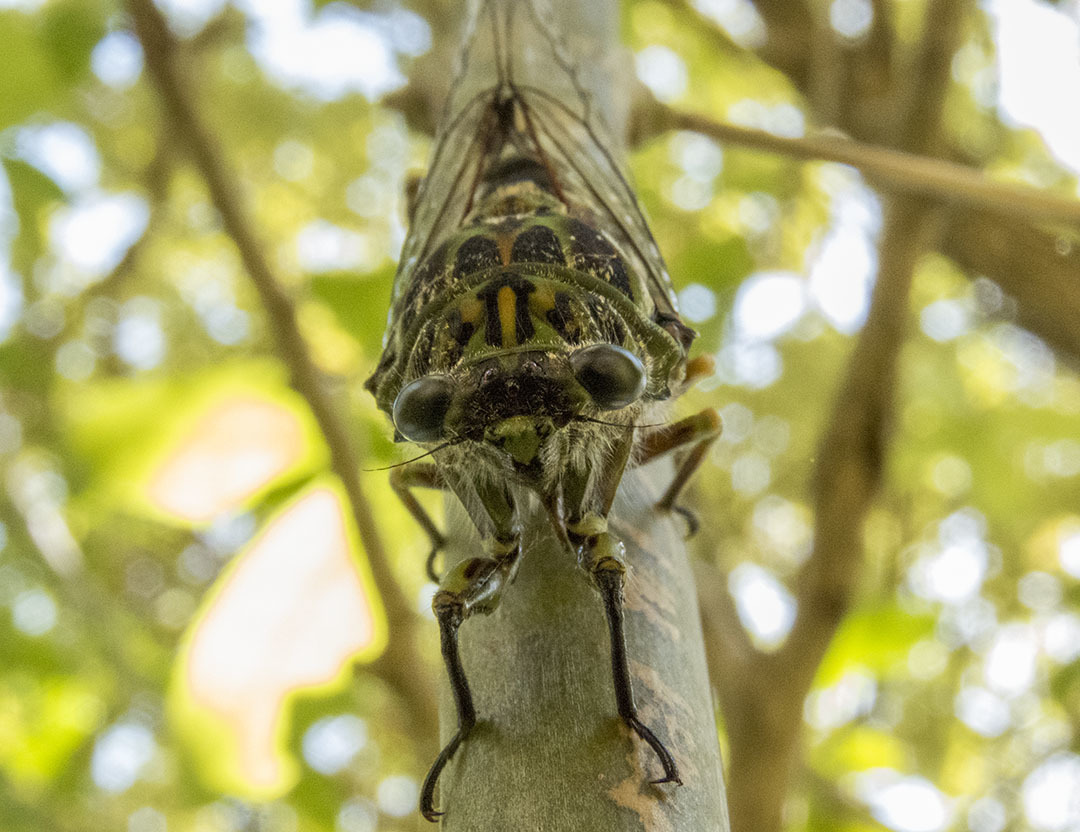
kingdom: Animalia
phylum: Arthropoda
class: Insecta
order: Hemiptera
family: Cicadidae
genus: Amphipsalta
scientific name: Amphipsalta zelandica
